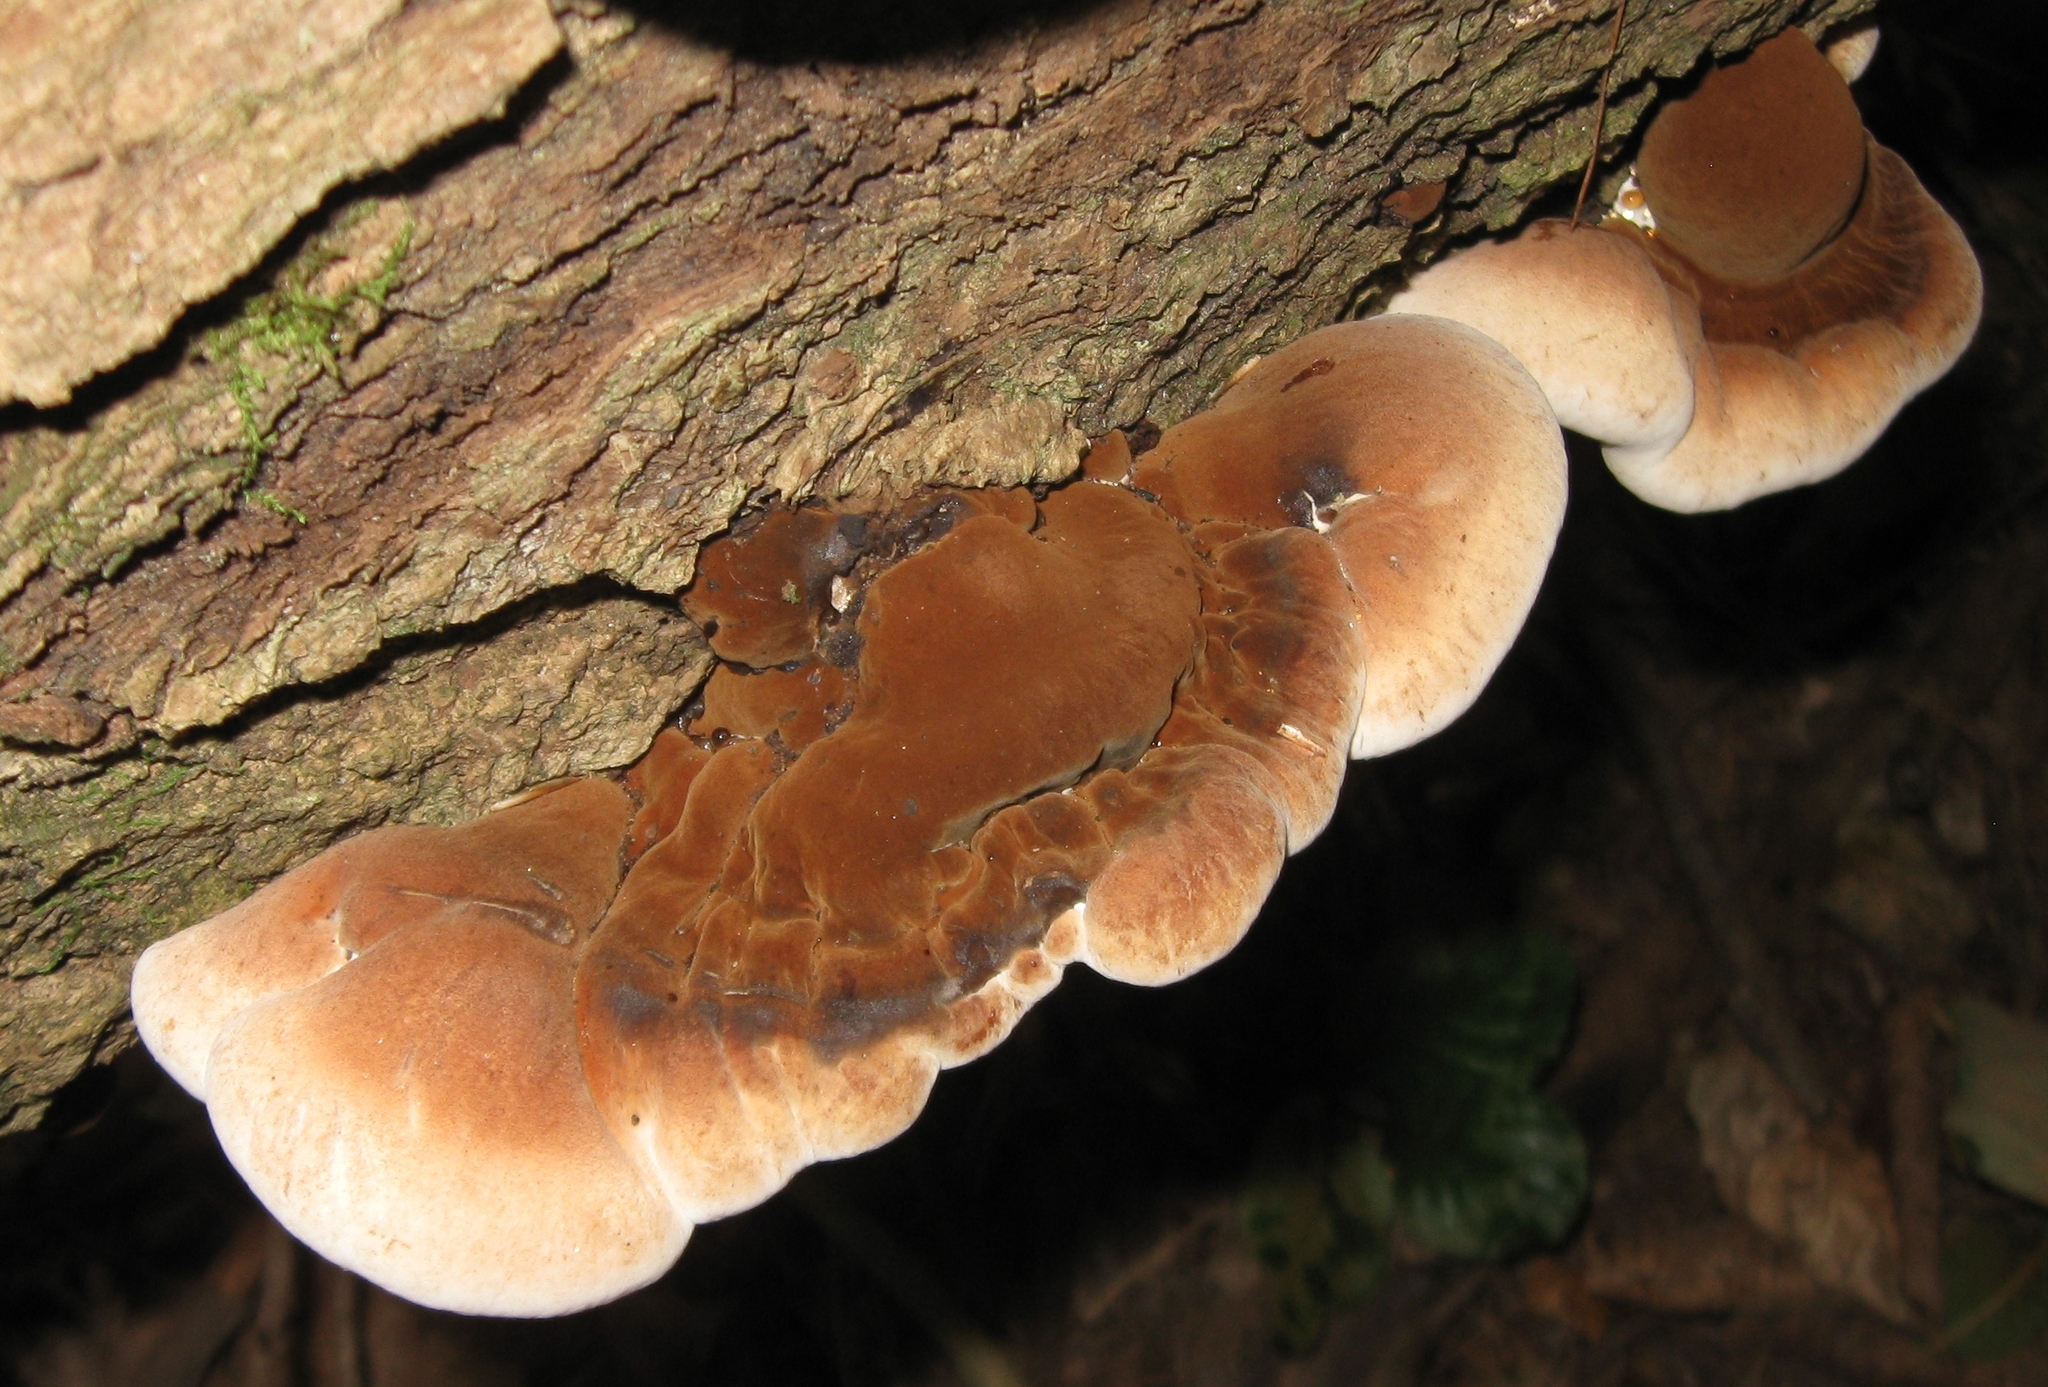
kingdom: Fungi
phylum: Basidiomycota
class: Agaricomycetes
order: Polyporales
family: Ischnodermataceae
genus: Ischnoderma
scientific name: Ischnoderma resinosum
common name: Resinous polypore
